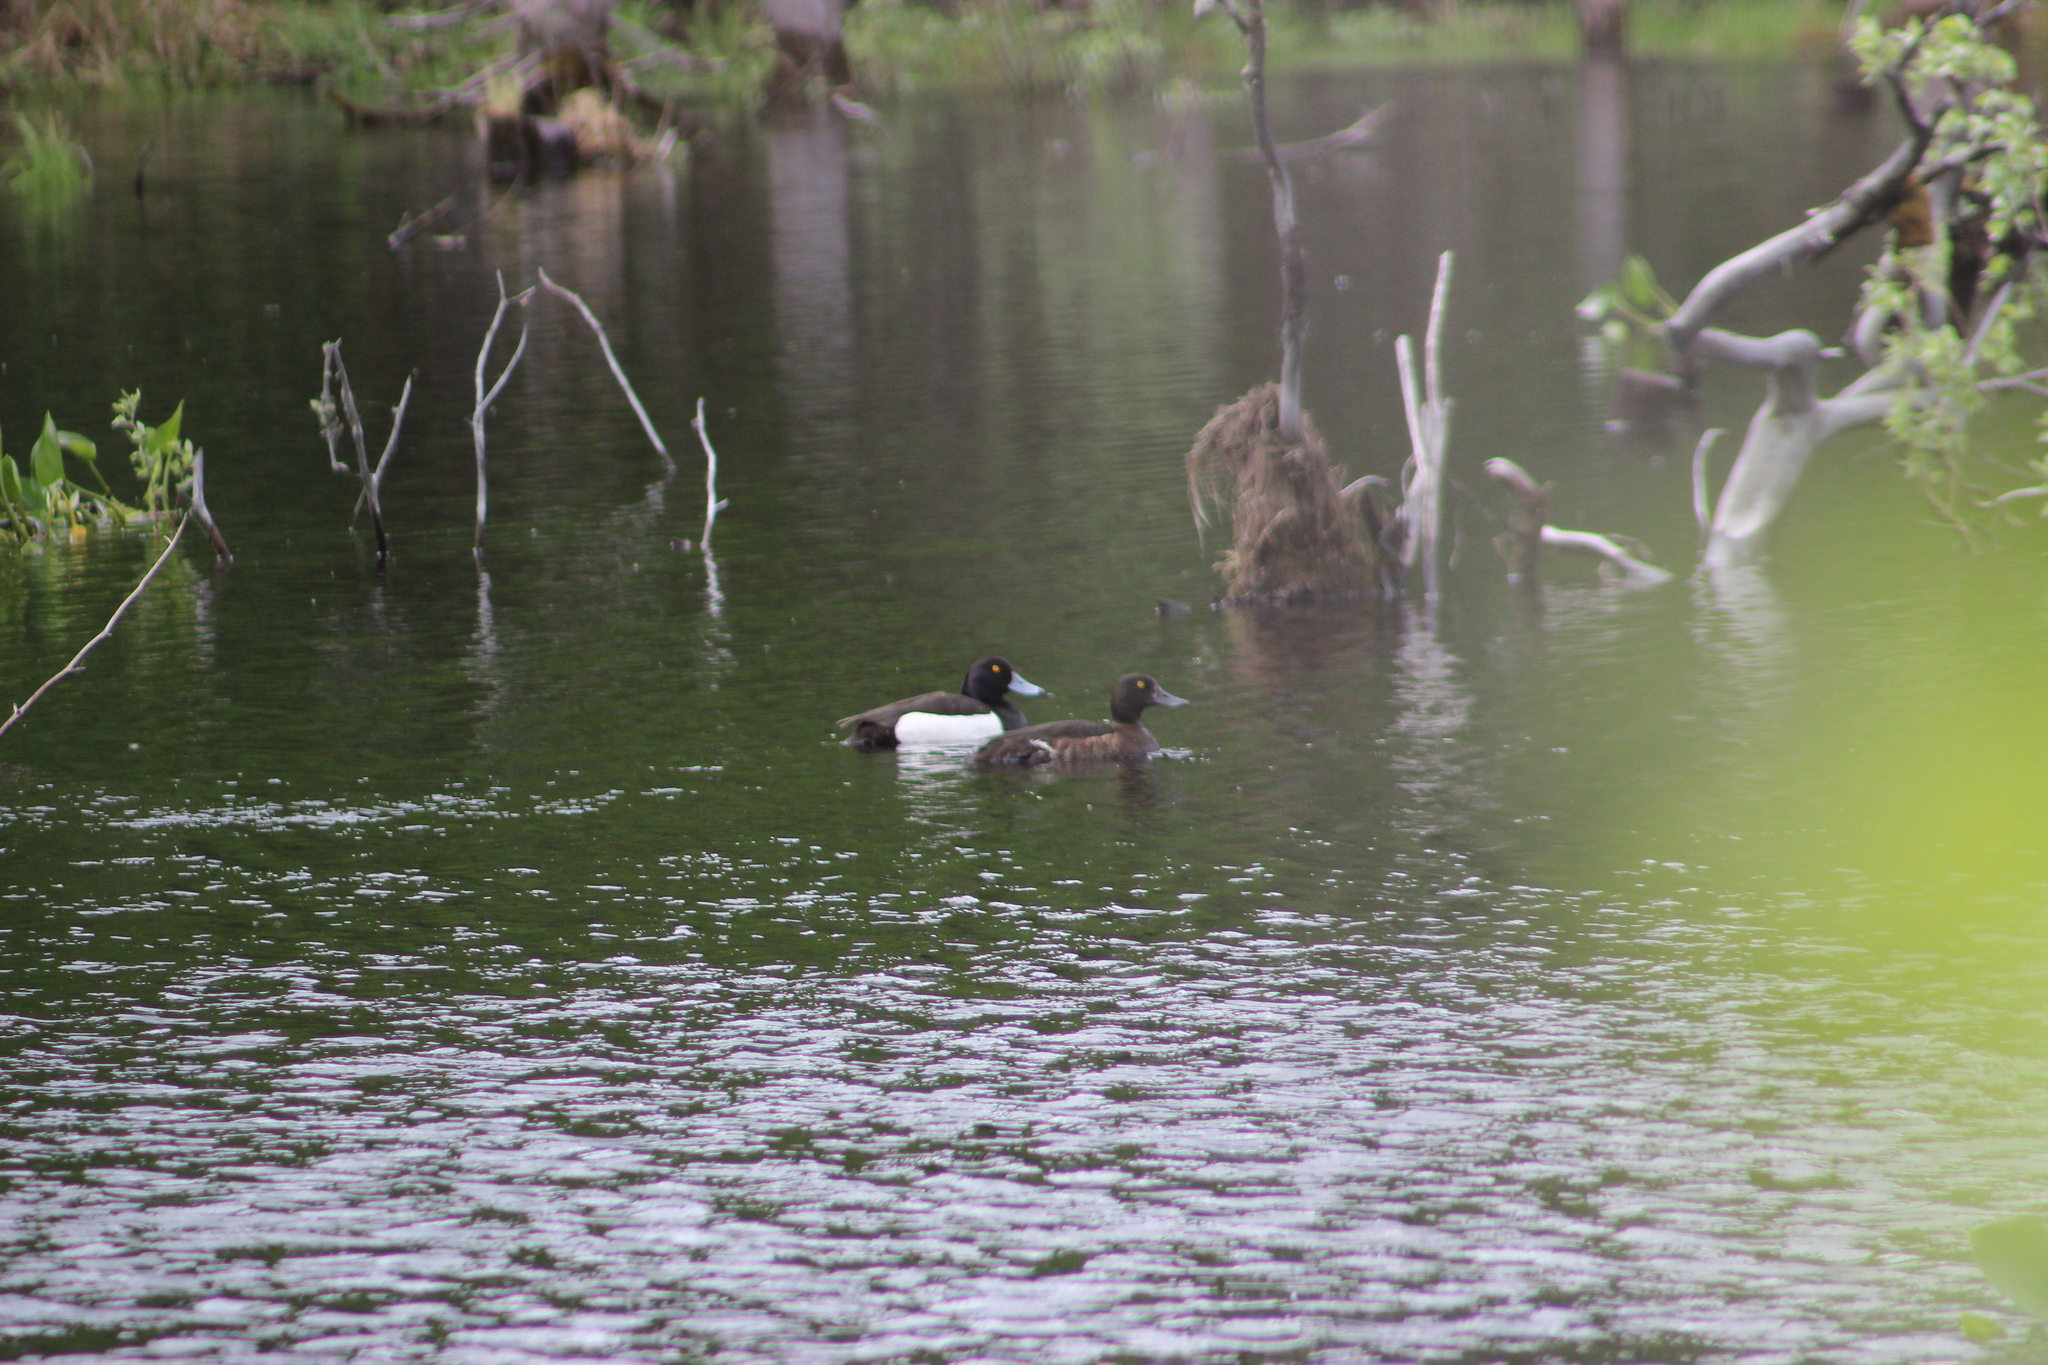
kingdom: Animalia
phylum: Chordata
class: Aves
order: Anseriformes
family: Anatidae
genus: Aythya
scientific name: Aythya fuligula
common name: Tufted duck
